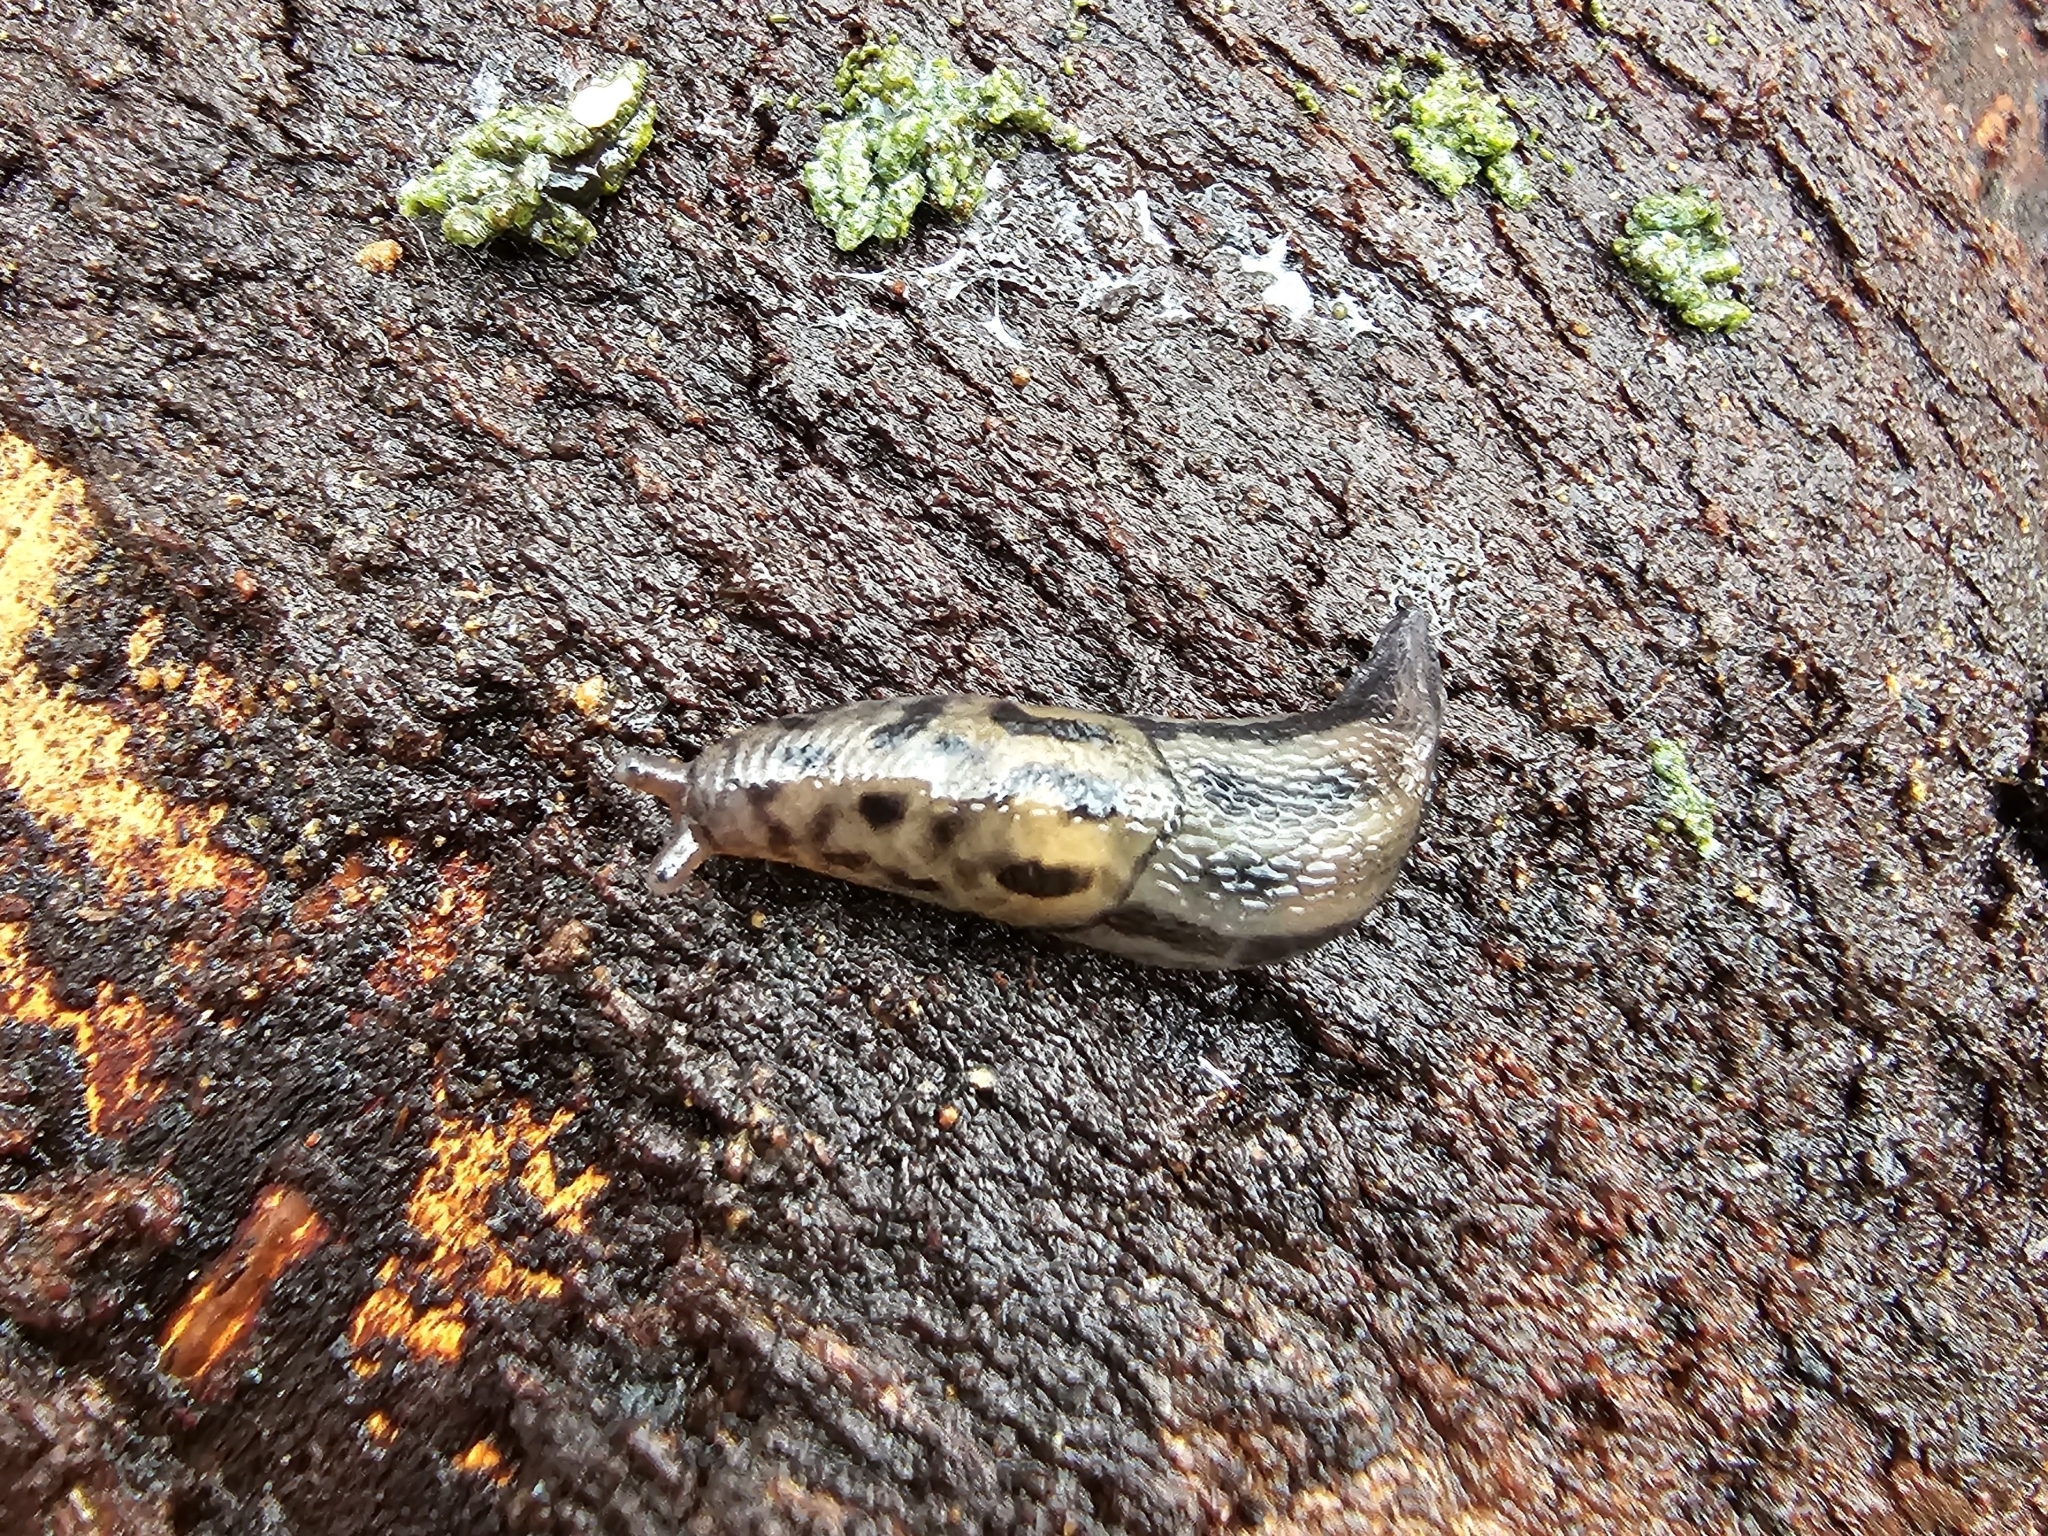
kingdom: Animalia
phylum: Mollusca
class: Gastropoda
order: Stylommatophora
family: Limacidae
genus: Limax
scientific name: Limax maximus
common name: Great grey slug
